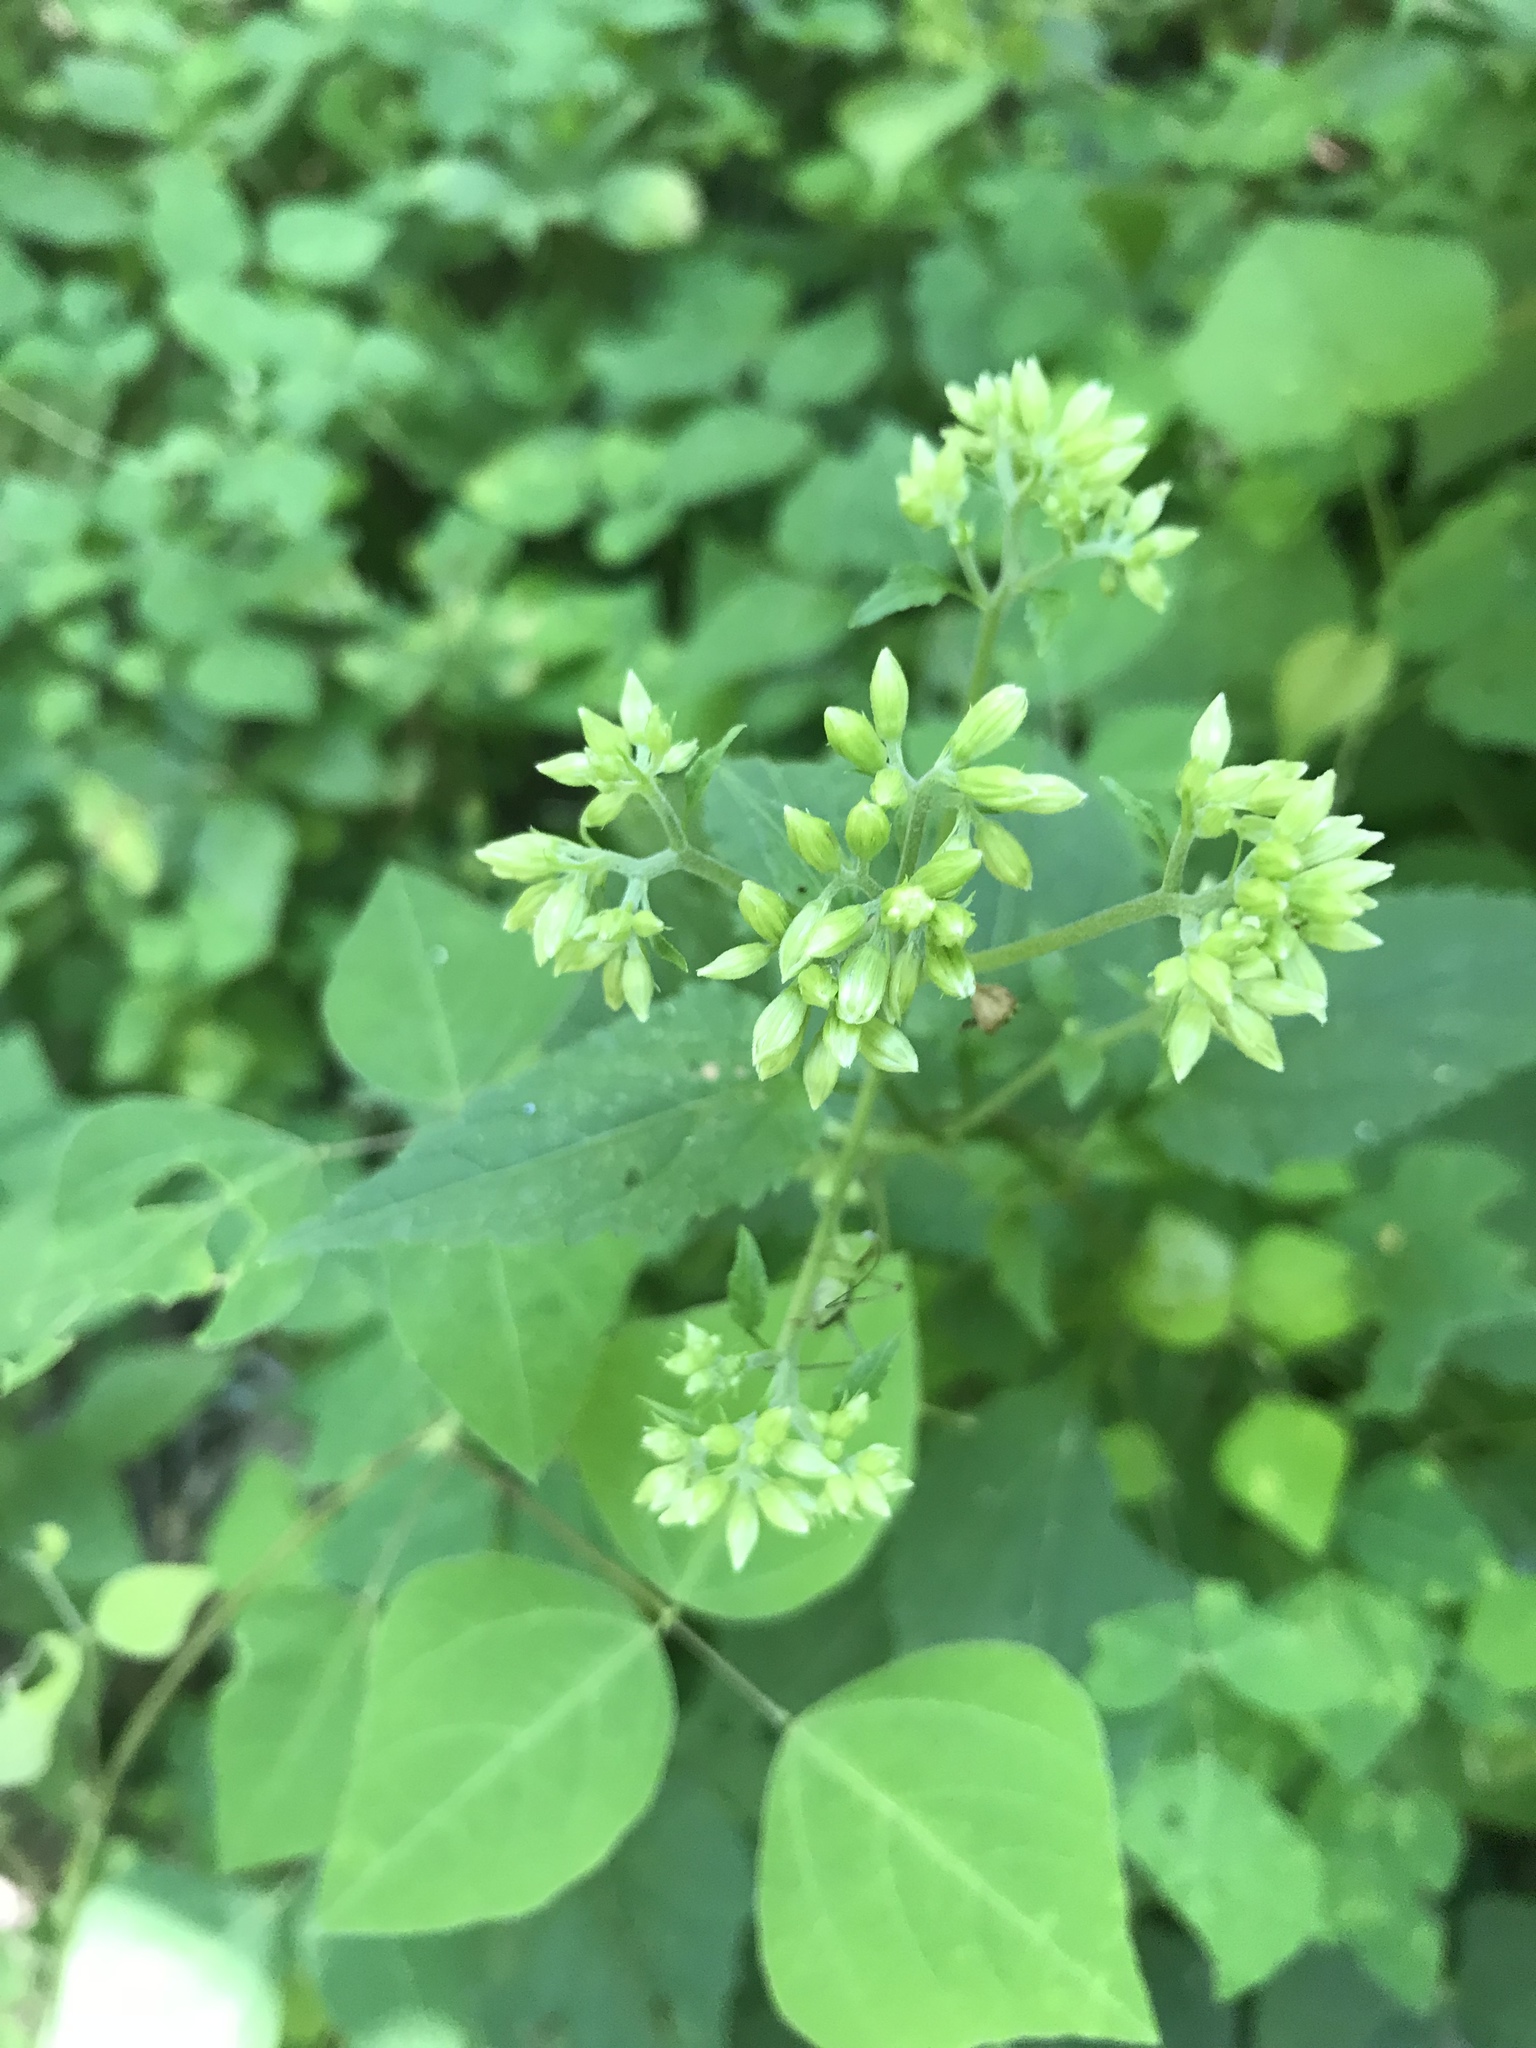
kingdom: Plantae
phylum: Tracheophyta
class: Magnoliopsida
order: Asterales
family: Asteraceae
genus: Ageratina
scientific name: Ageratina altissima
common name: White snakeroot
